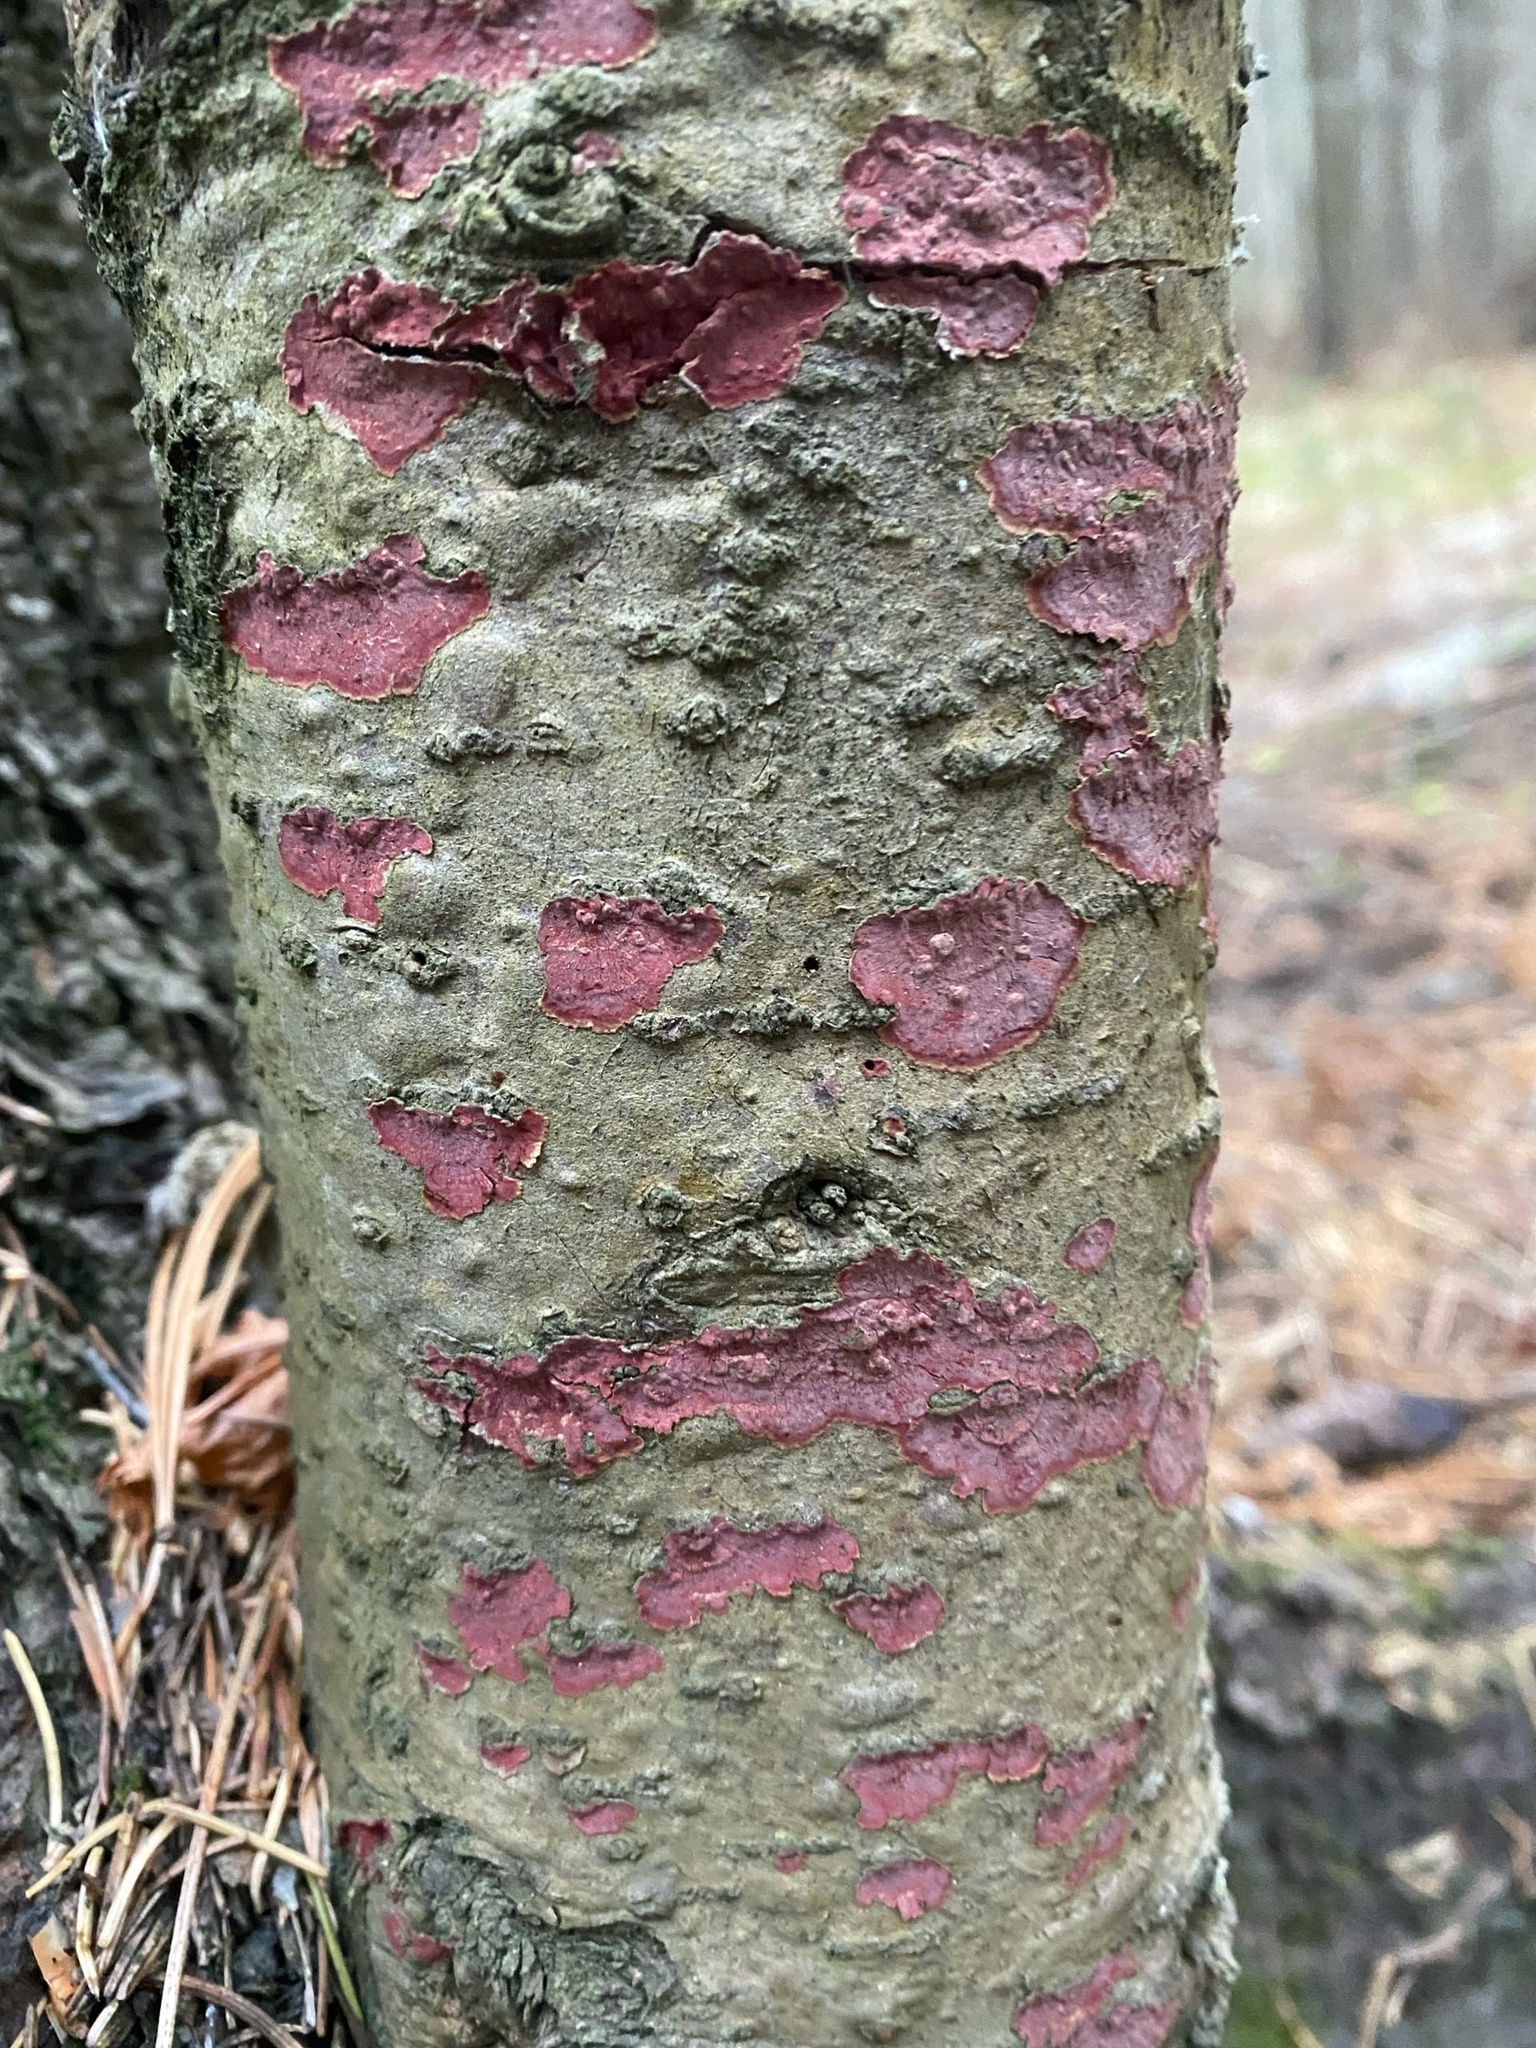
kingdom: Fungi
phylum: Basidiomycota
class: Agaricomycetes
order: Hymenochaetales
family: Hymenochaetaceae
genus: Hymenochaete
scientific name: Hymenochaete cruenta
